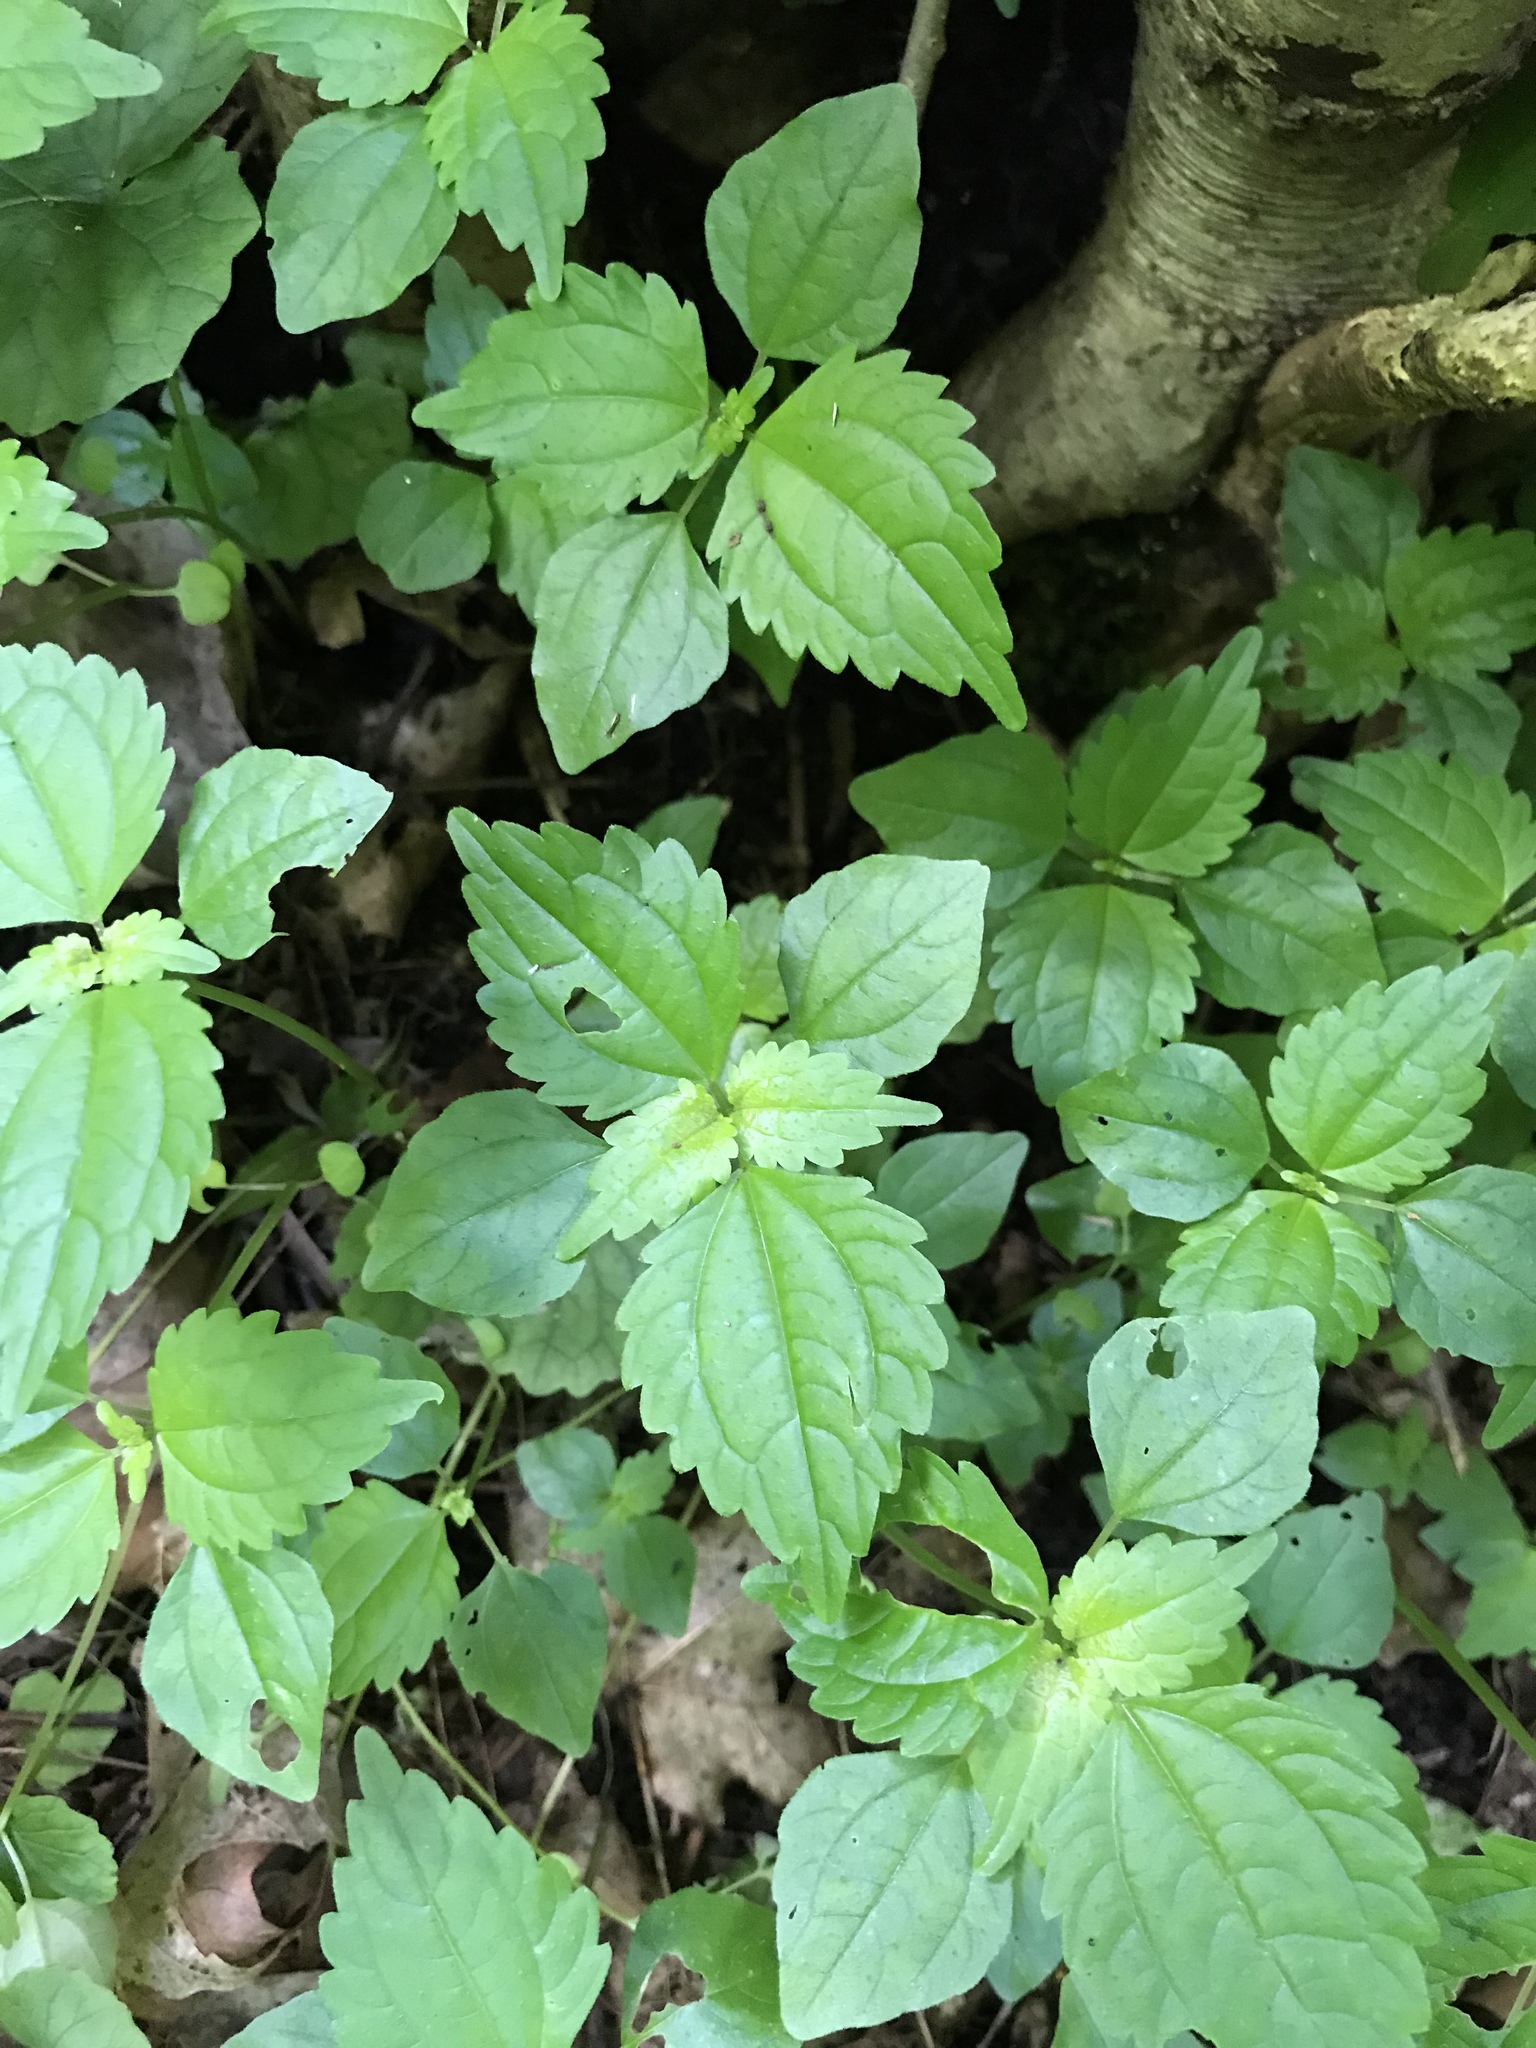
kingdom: Plantae
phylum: Tracheophyta
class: Magnoliopsida
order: Rosales
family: Urticaceae
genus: Pilea
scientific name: Pilea pumila
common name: Clearweed
